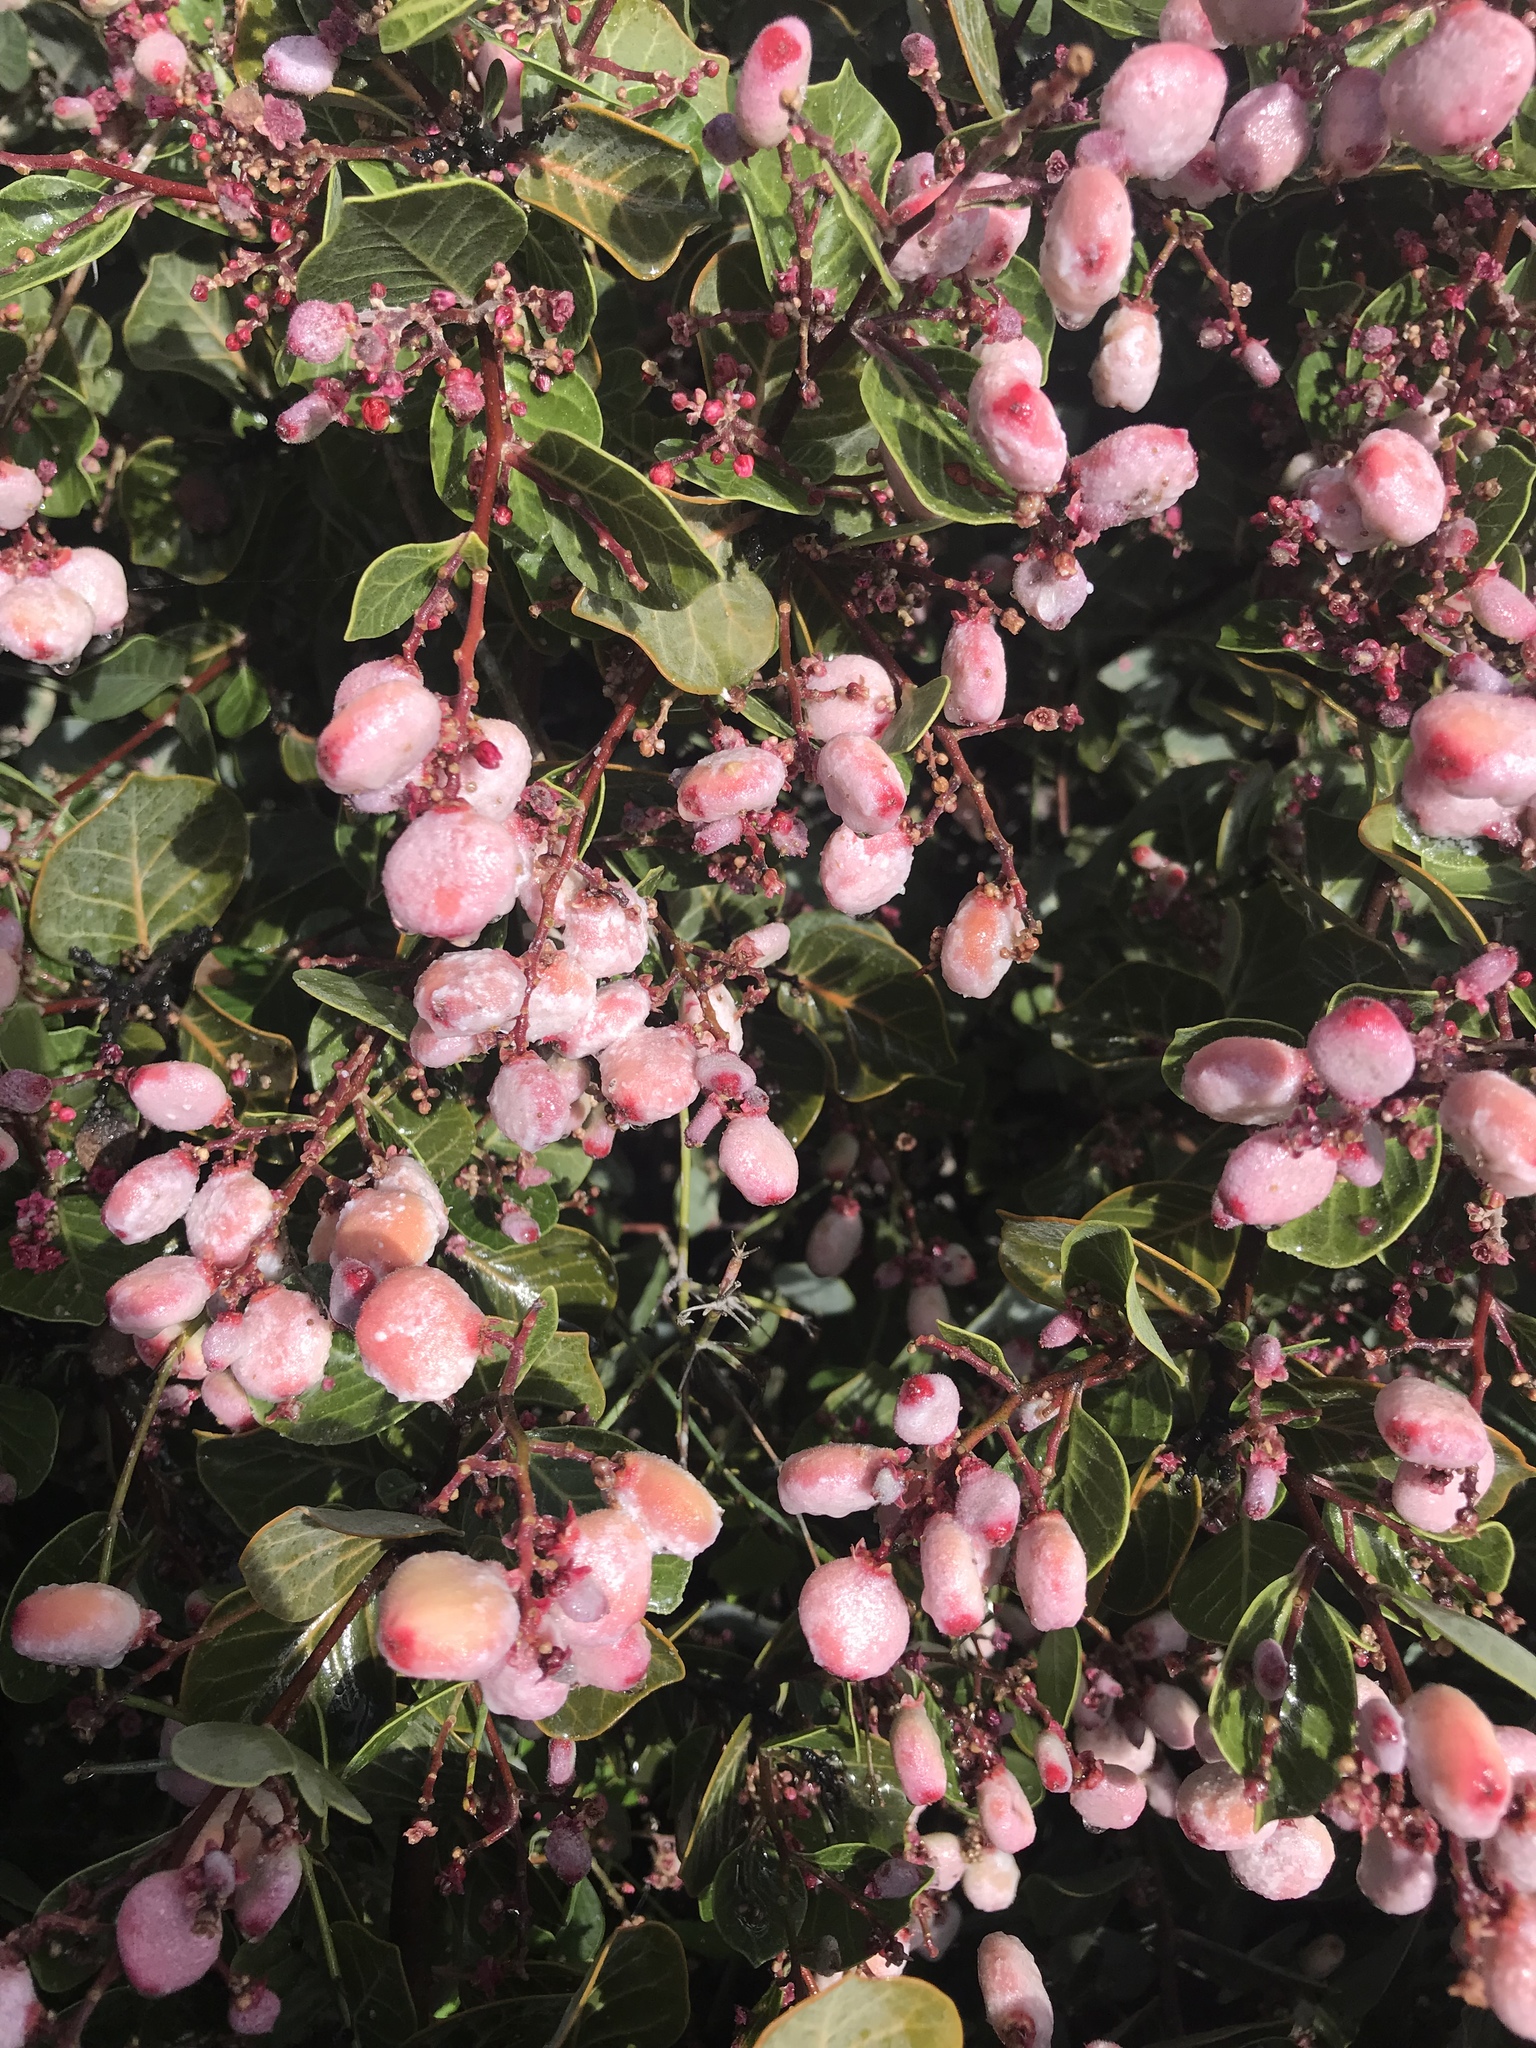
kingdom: Plantae
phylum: Tracheophyta
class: Magnoliopsida
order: Sapindales
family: Anacardiaceae
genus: Rhus
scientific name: Rhus lentii
